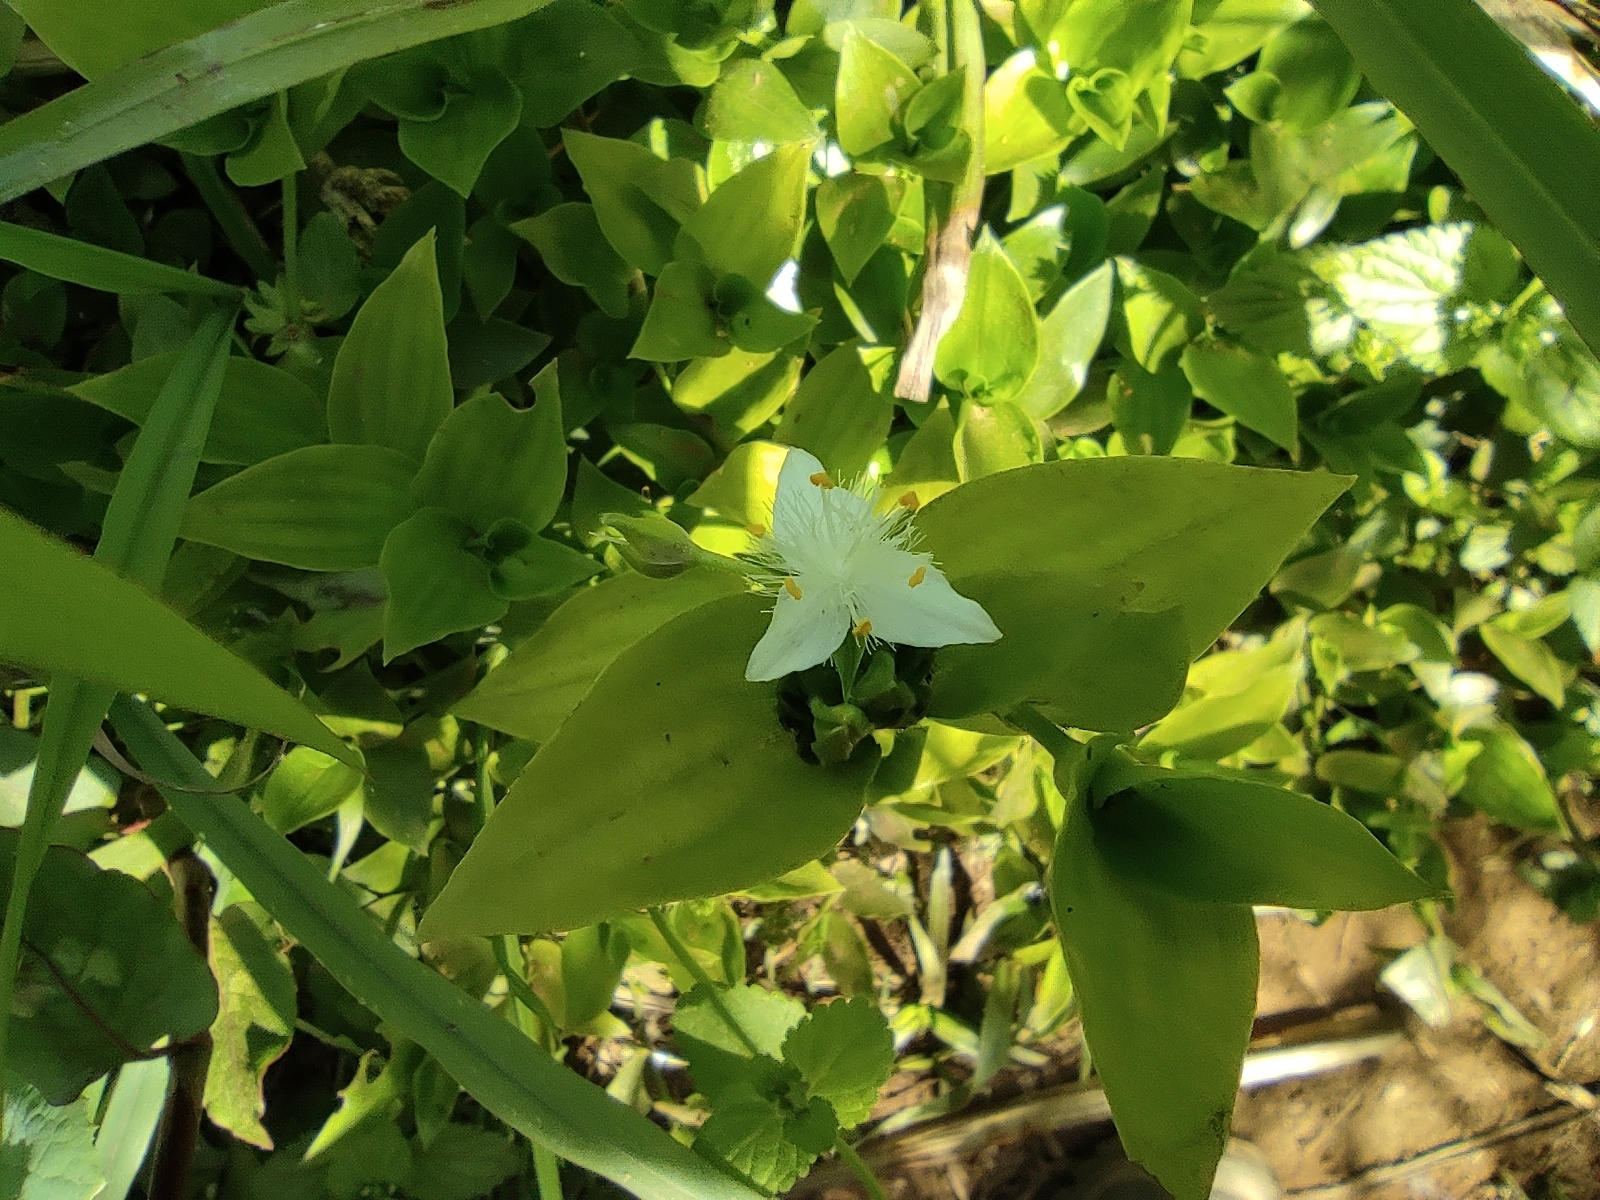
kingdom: Plantae
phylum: Tracheophyta
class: Liliopsida
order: Commelinales
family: Commelinaceae
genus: Tradescantia
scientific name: Tradescantia fluminensis
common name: Wandering-jew
